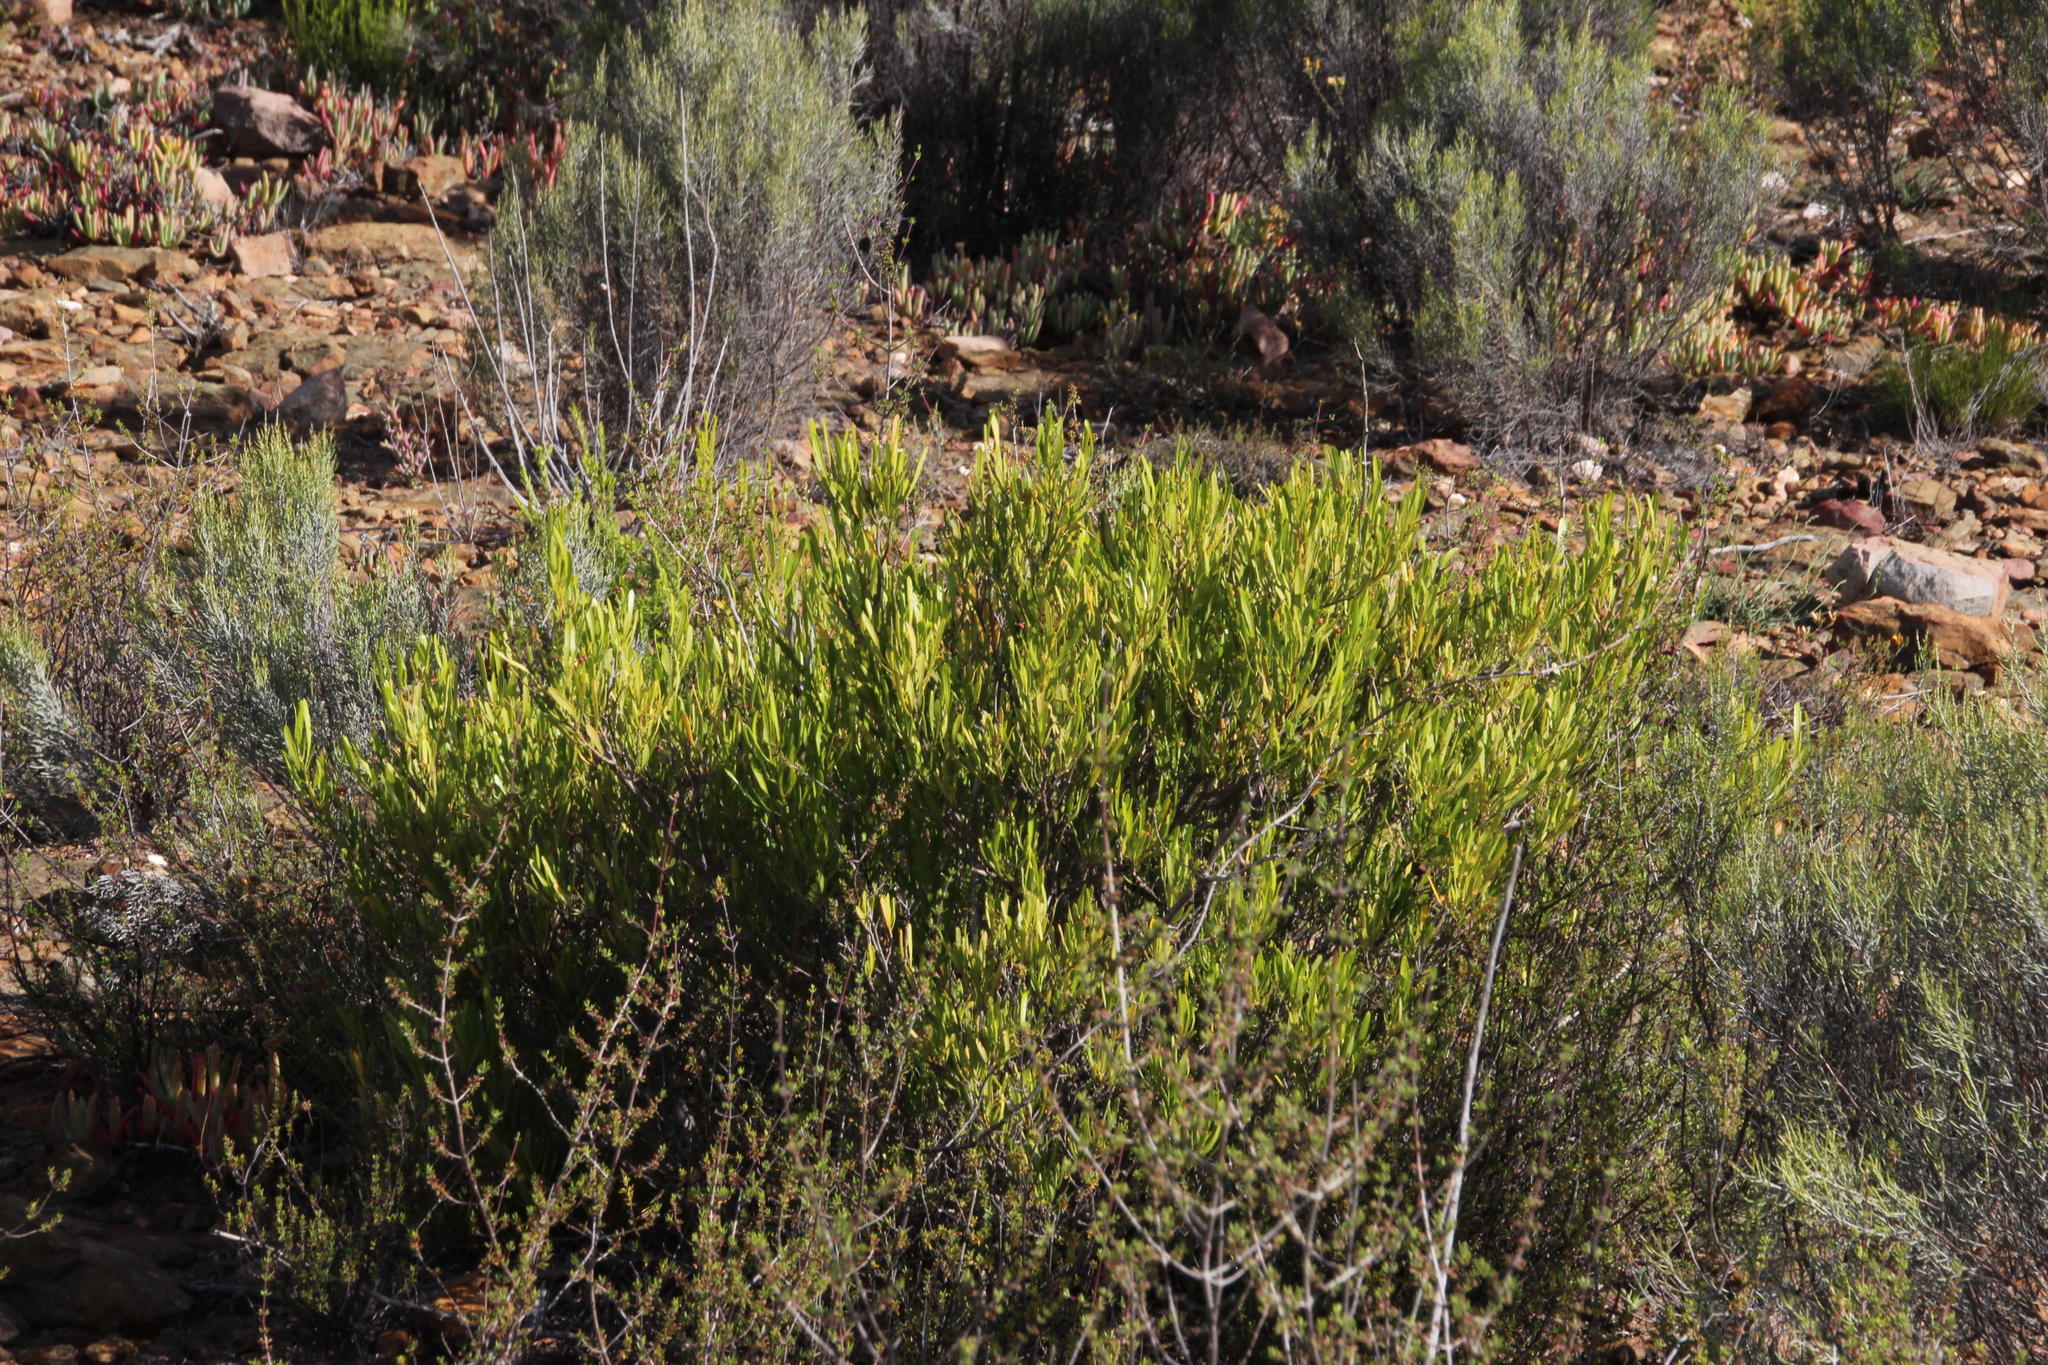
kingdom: Plantae
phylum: Tracheophyta
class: Magnoliopsida
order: Sapindales
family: Sapindaceae
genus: Dodonaea
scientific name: Dodonaea viscosa
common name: Hopbush
